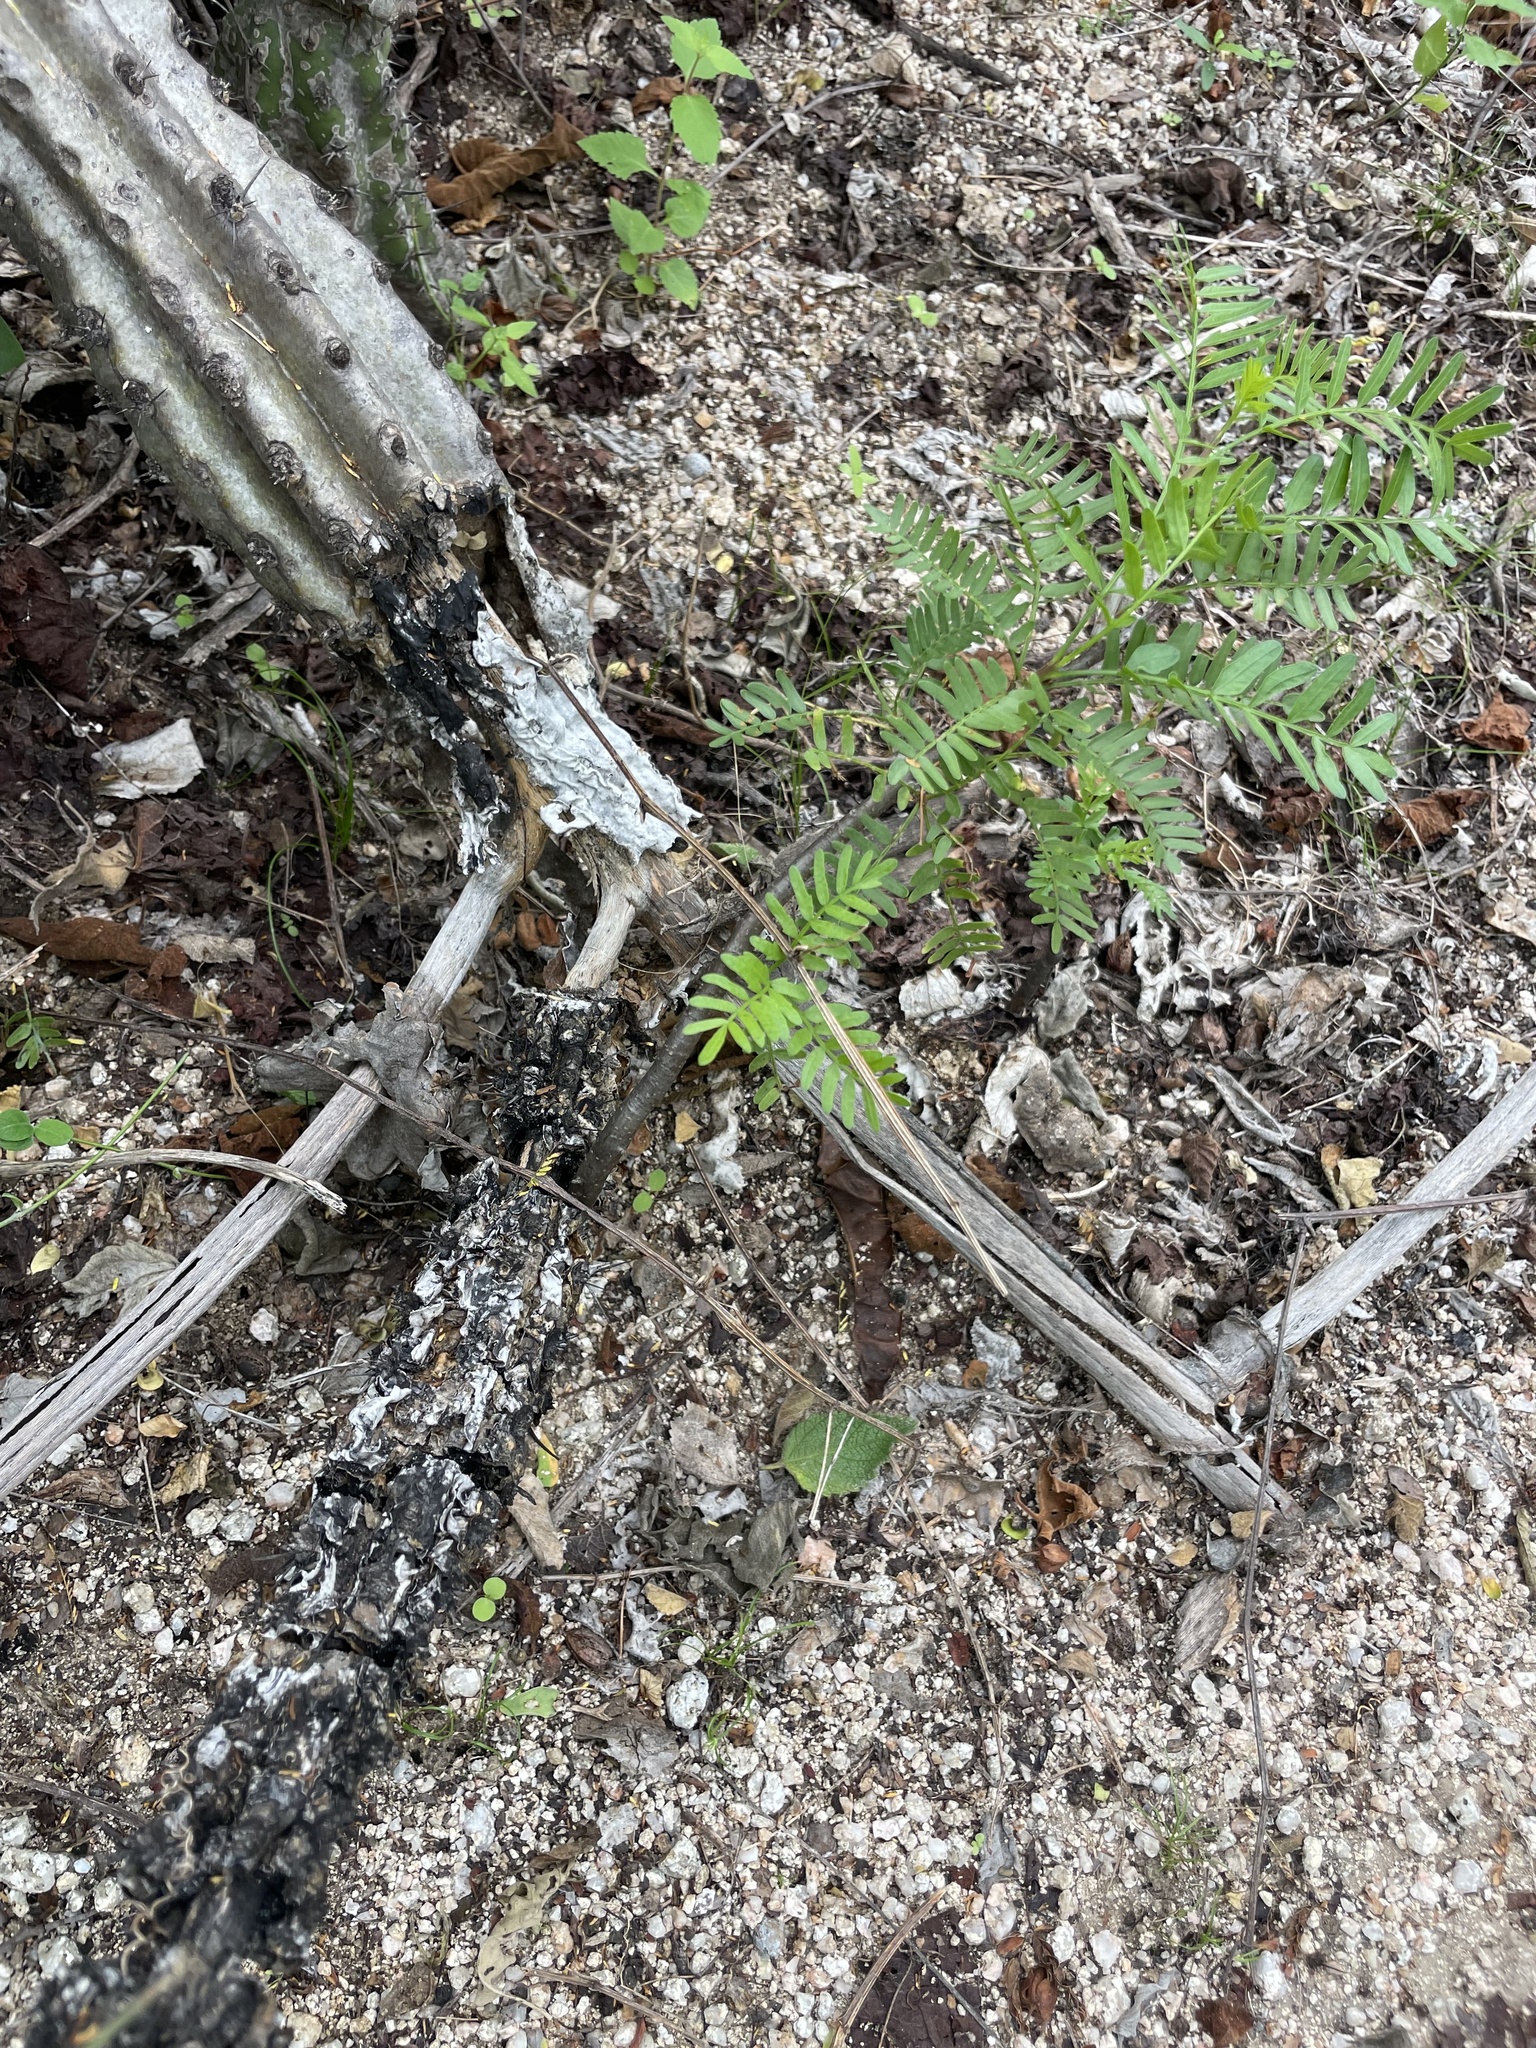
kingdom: Plantae
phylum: Tracheophyta
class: Magnoliopsida
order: Sapindales
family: Burseraceae
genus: Bursera
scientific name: Bursera microphylla
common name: Elephant tree
